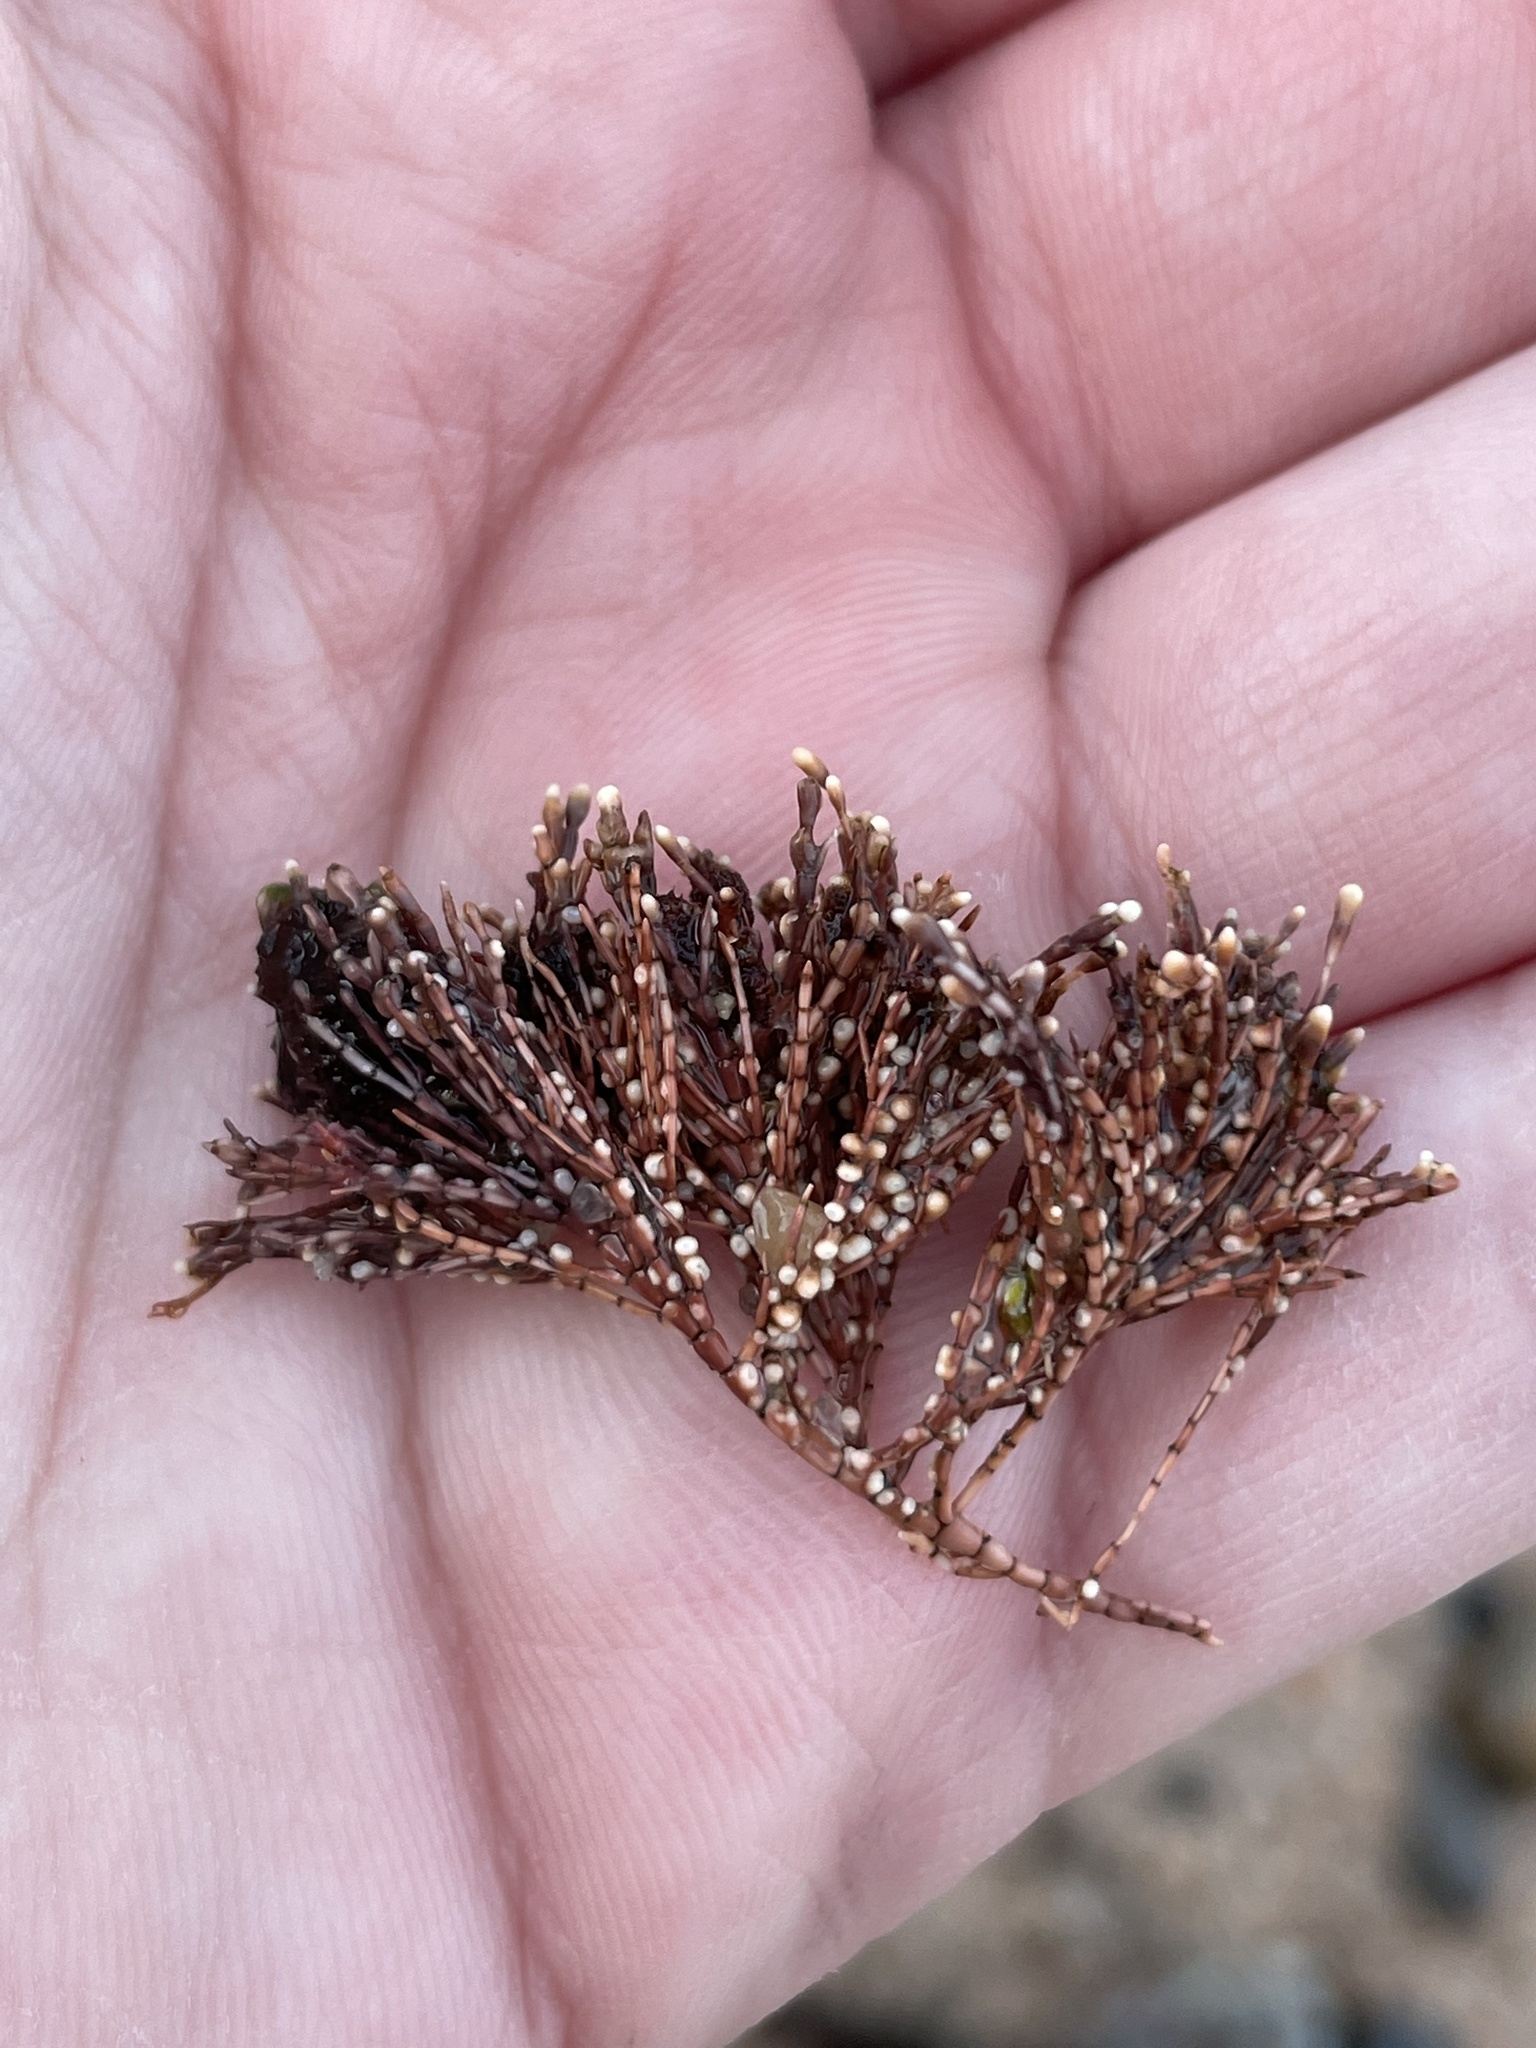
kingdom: Plantae
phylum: Rhodophyta
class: Florideophyceae
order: Corallinales
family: Corallinaceae
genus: Corallina
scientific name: Corallina officinalis
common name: Coral weed
